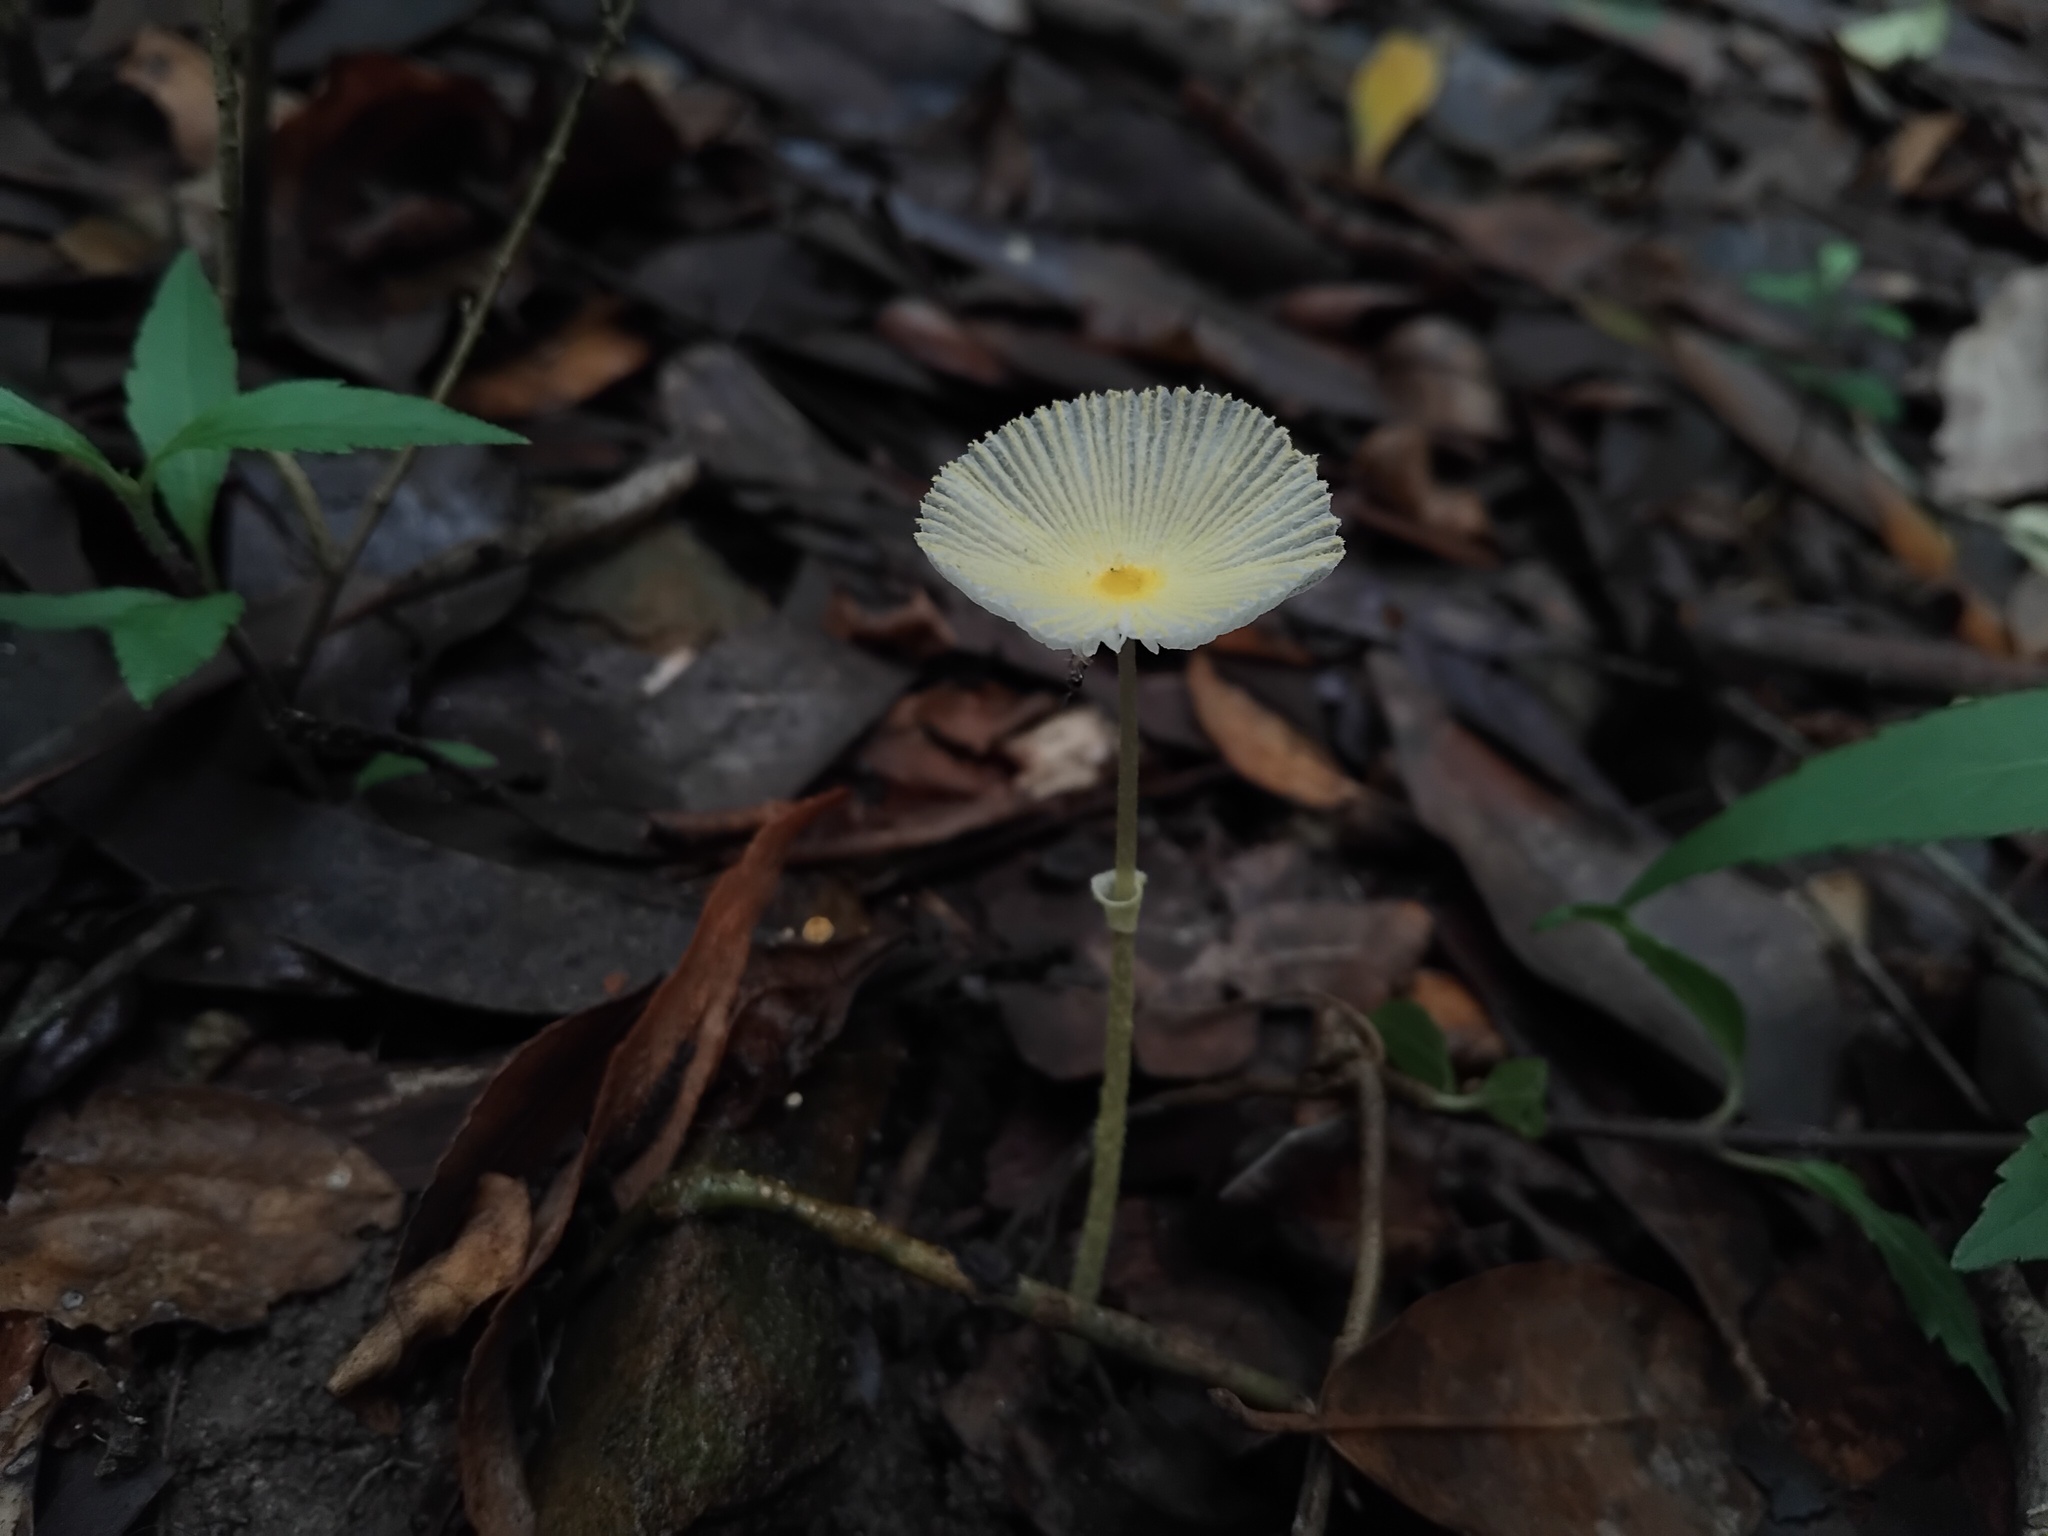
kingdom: Fungi
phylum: Basidiomycota
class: Agaricomycetes
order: Agaricales
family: Agaricaceae
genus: Leucocoprinus
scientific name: Leucocoprinus fragilissimus
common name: Fragile dapperling
